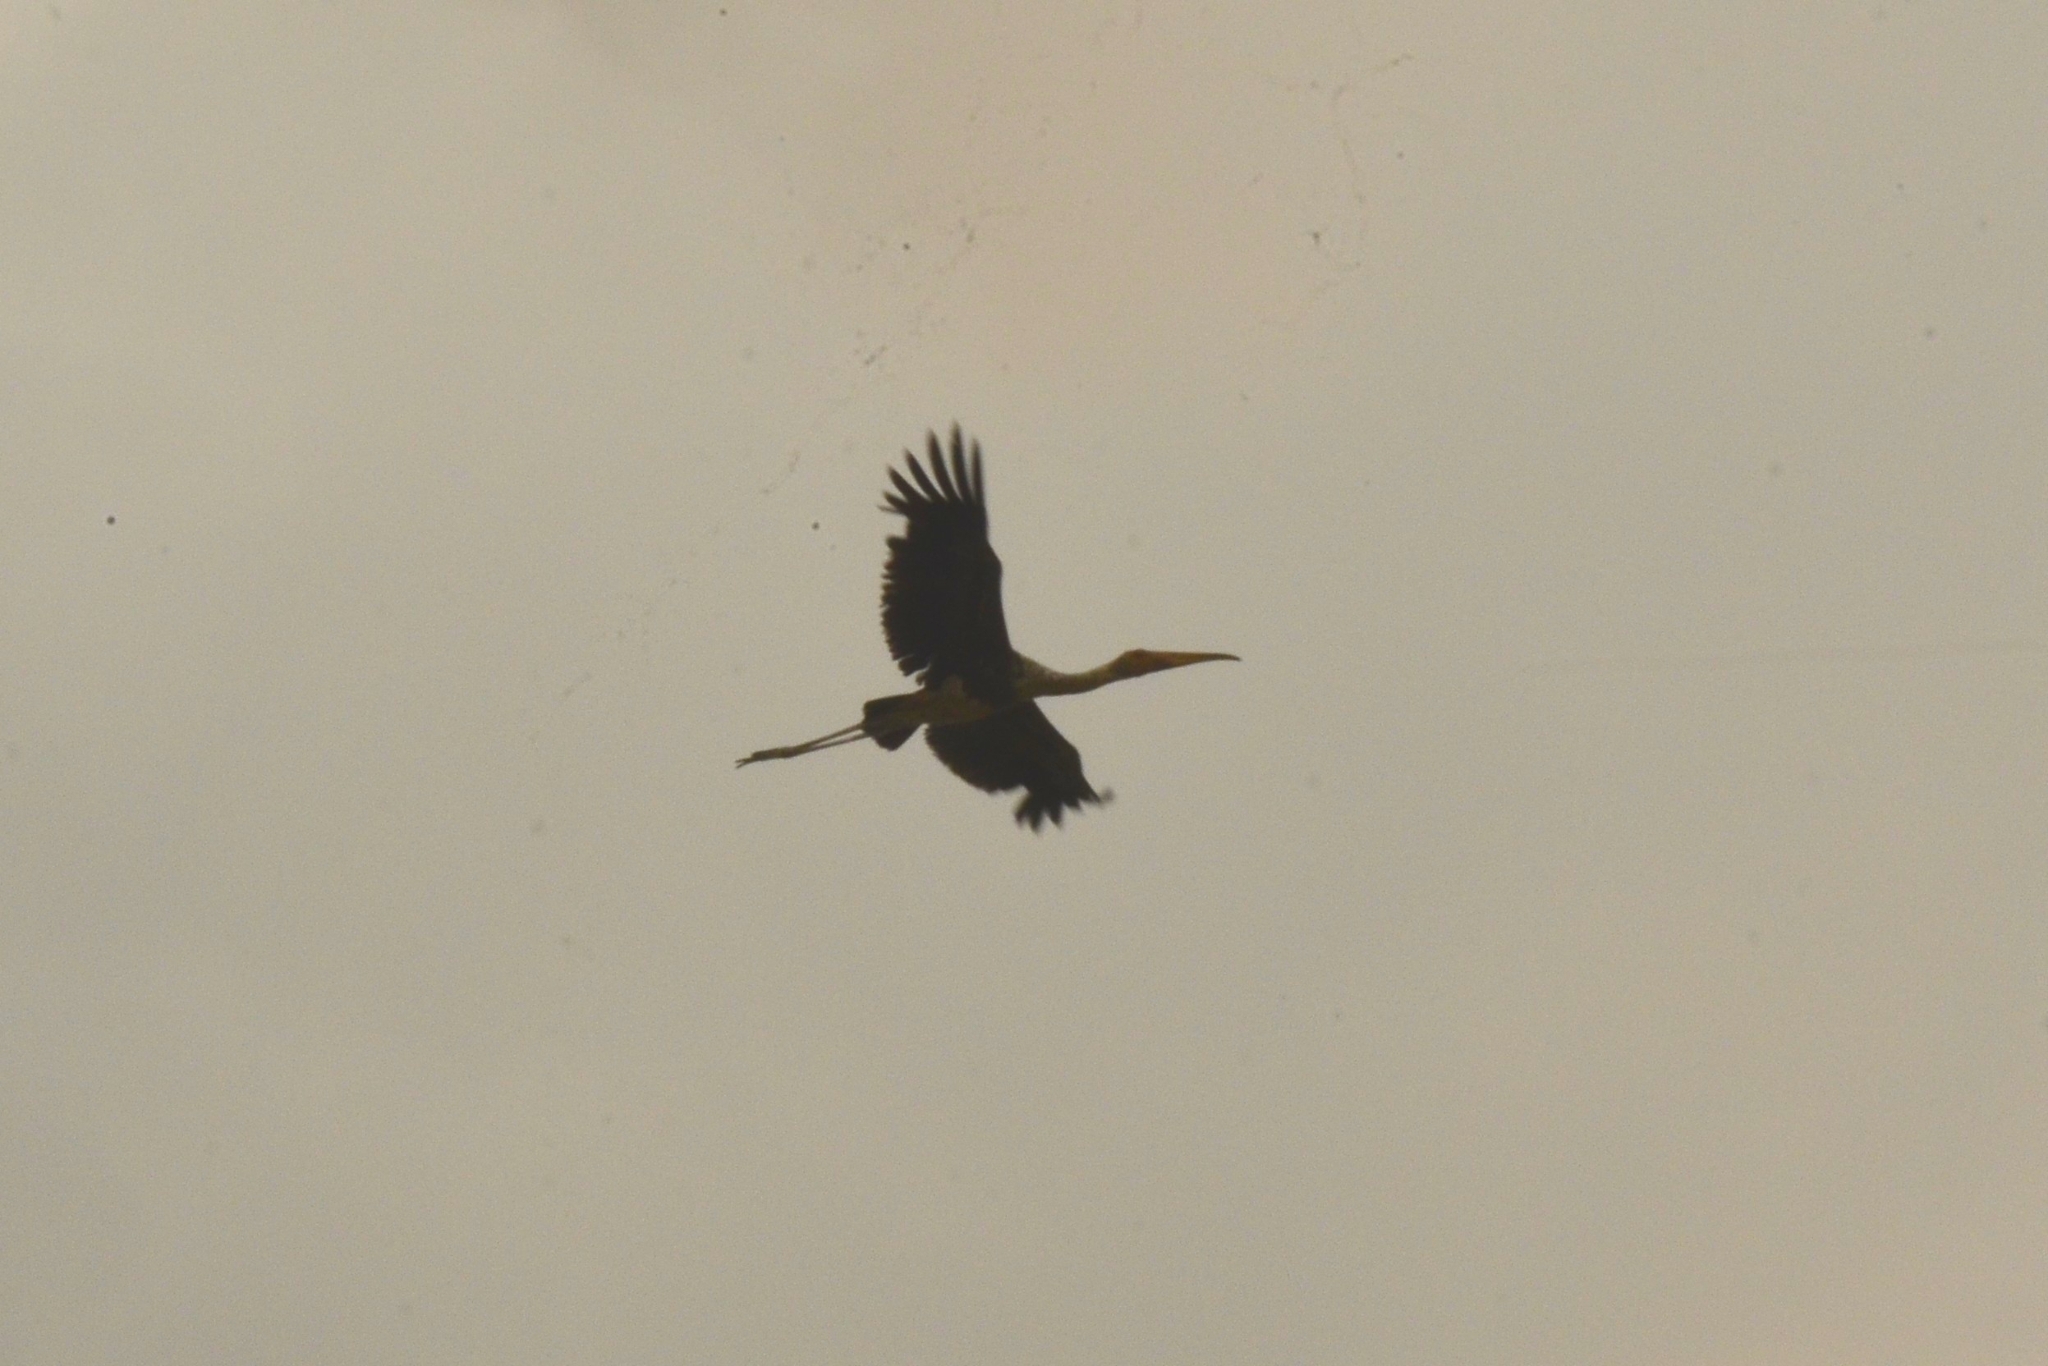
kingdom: Animalia
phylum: Chordata
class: Aves
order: Ciconiiformes
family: Ciconiidae
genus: Mycteria
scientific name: Mycteria leucocephala
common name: Painted stork
